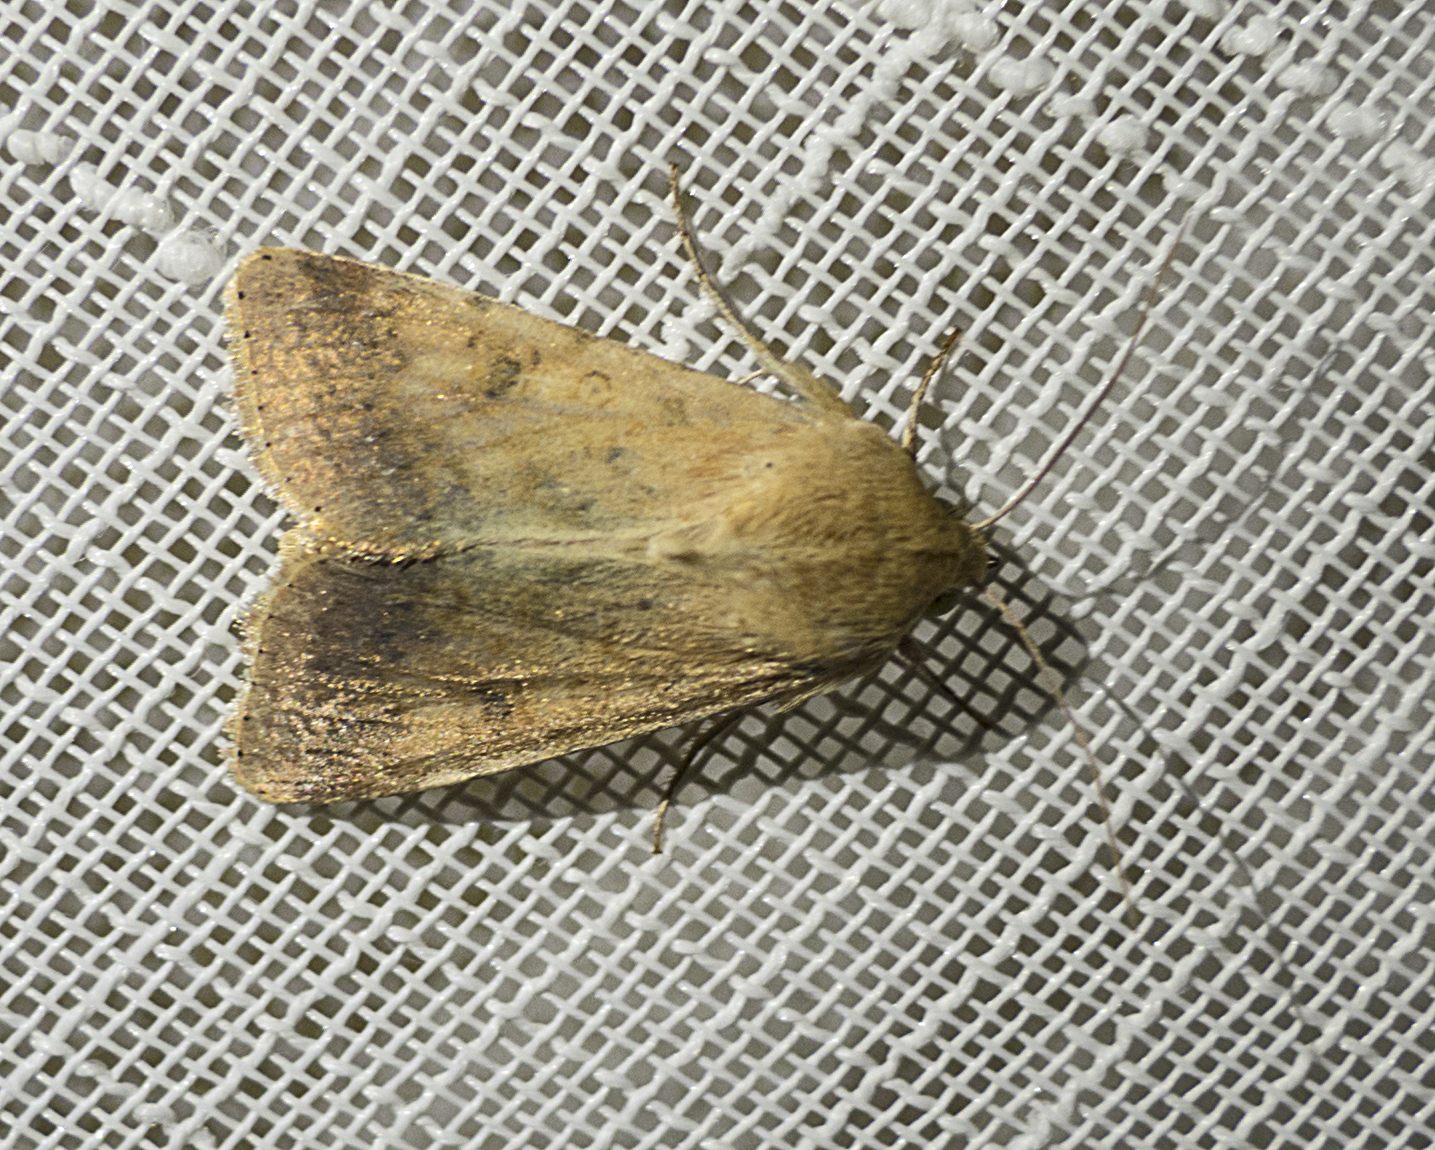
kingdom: Animalia
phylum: Arthropoda
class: Insecta
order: Lepidoptera
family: Noctuidae
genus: Helicoverpa
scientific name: Helicoverpa armigera
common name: Cotton bollworm
